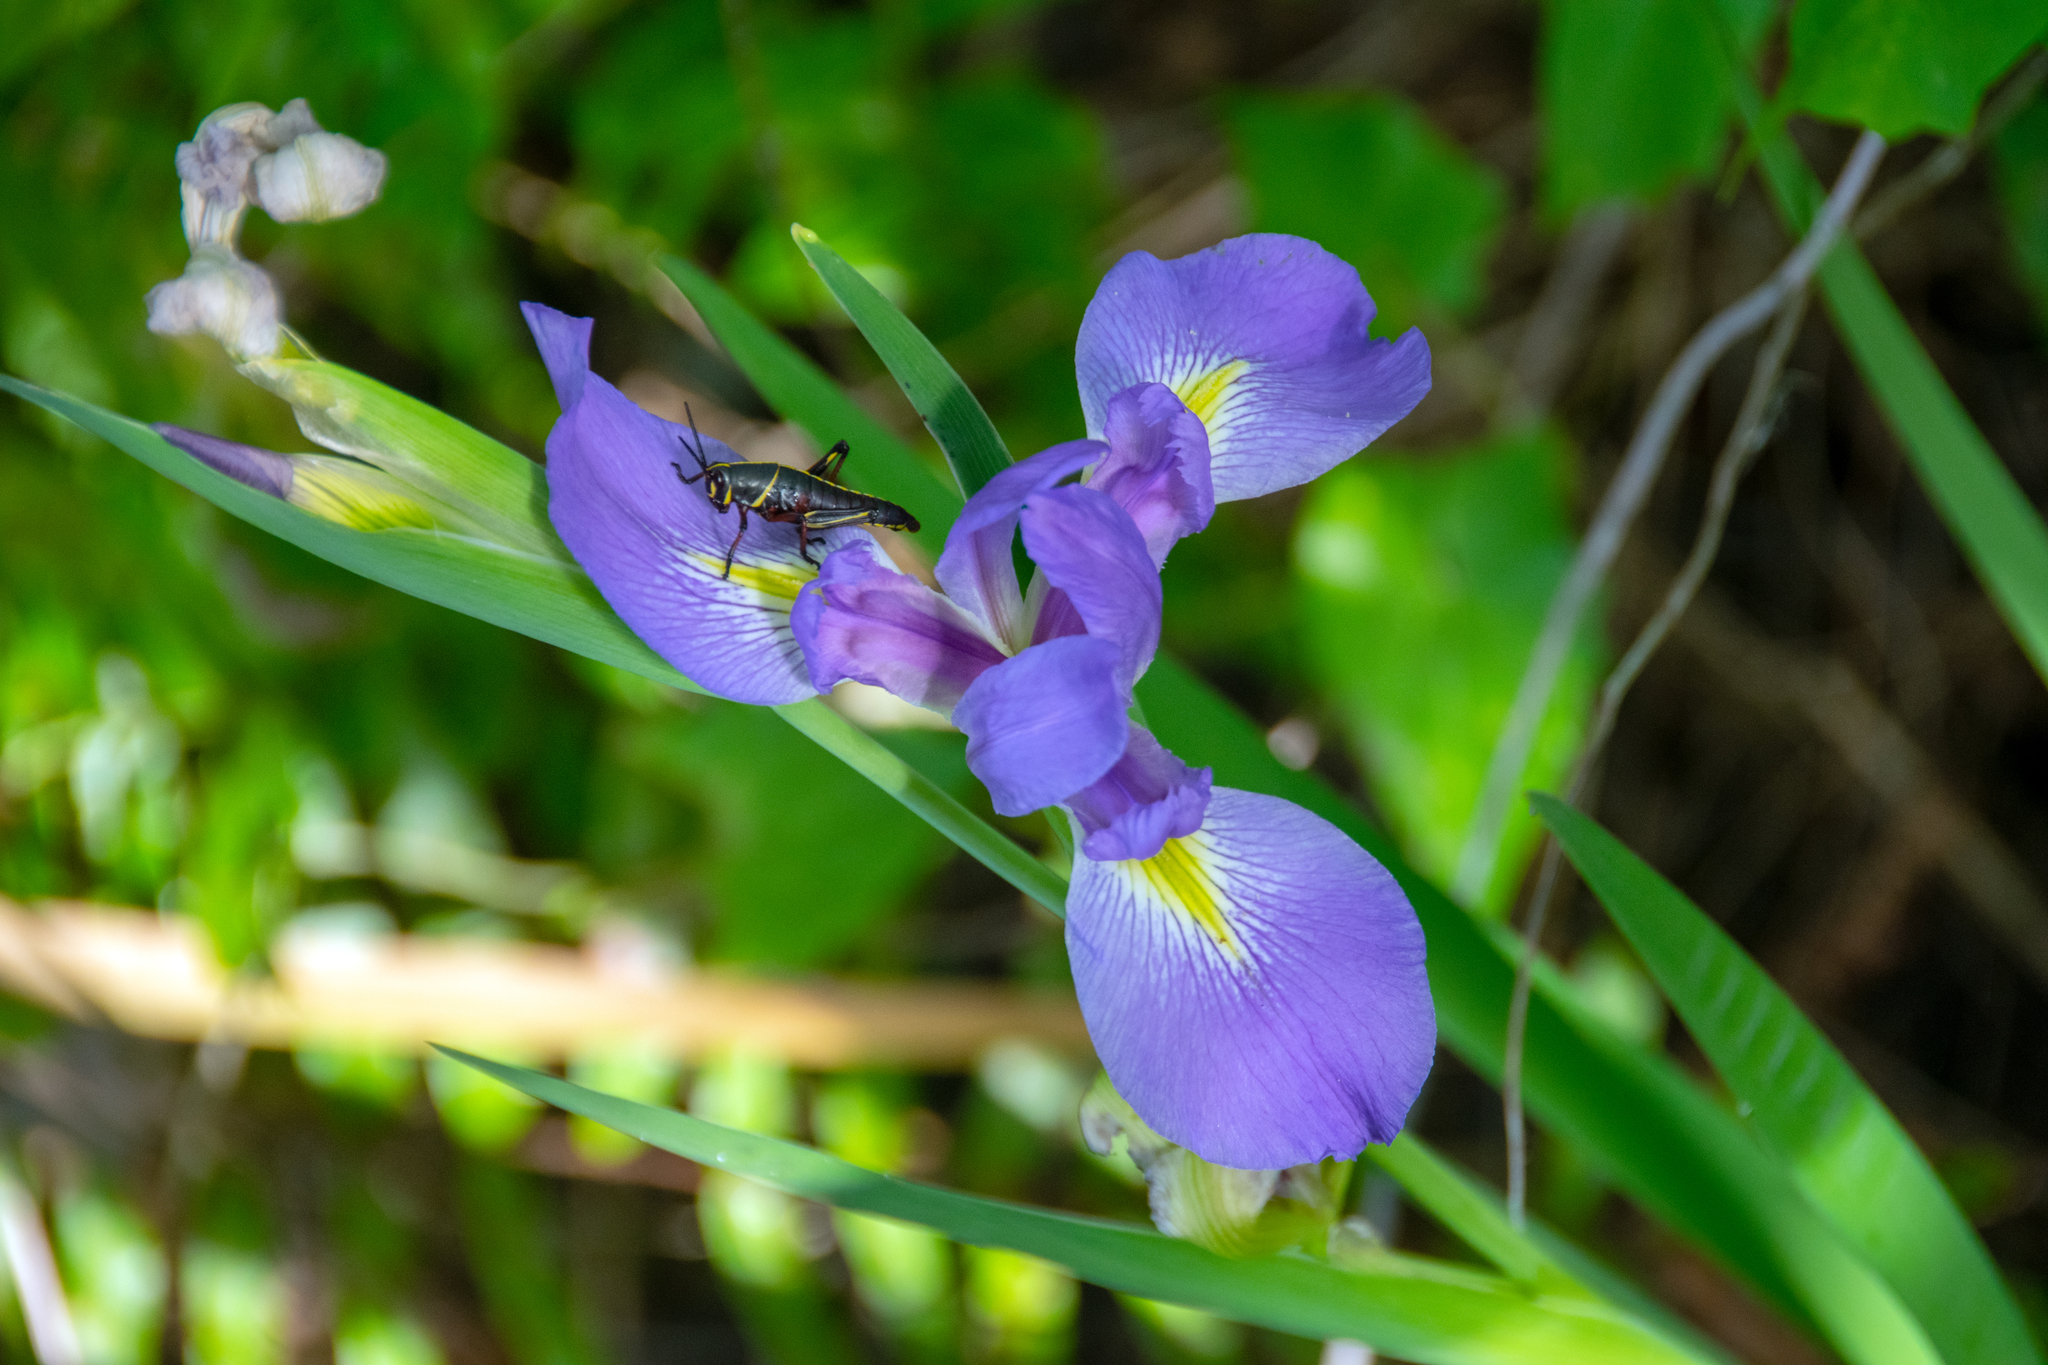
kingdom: Animalia
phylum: Arthropoda
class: Insecta
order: Orthoptera
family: Romaleidae
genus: Romalea
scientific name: Romalea microptera
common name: Eastern lubber grasshopper
